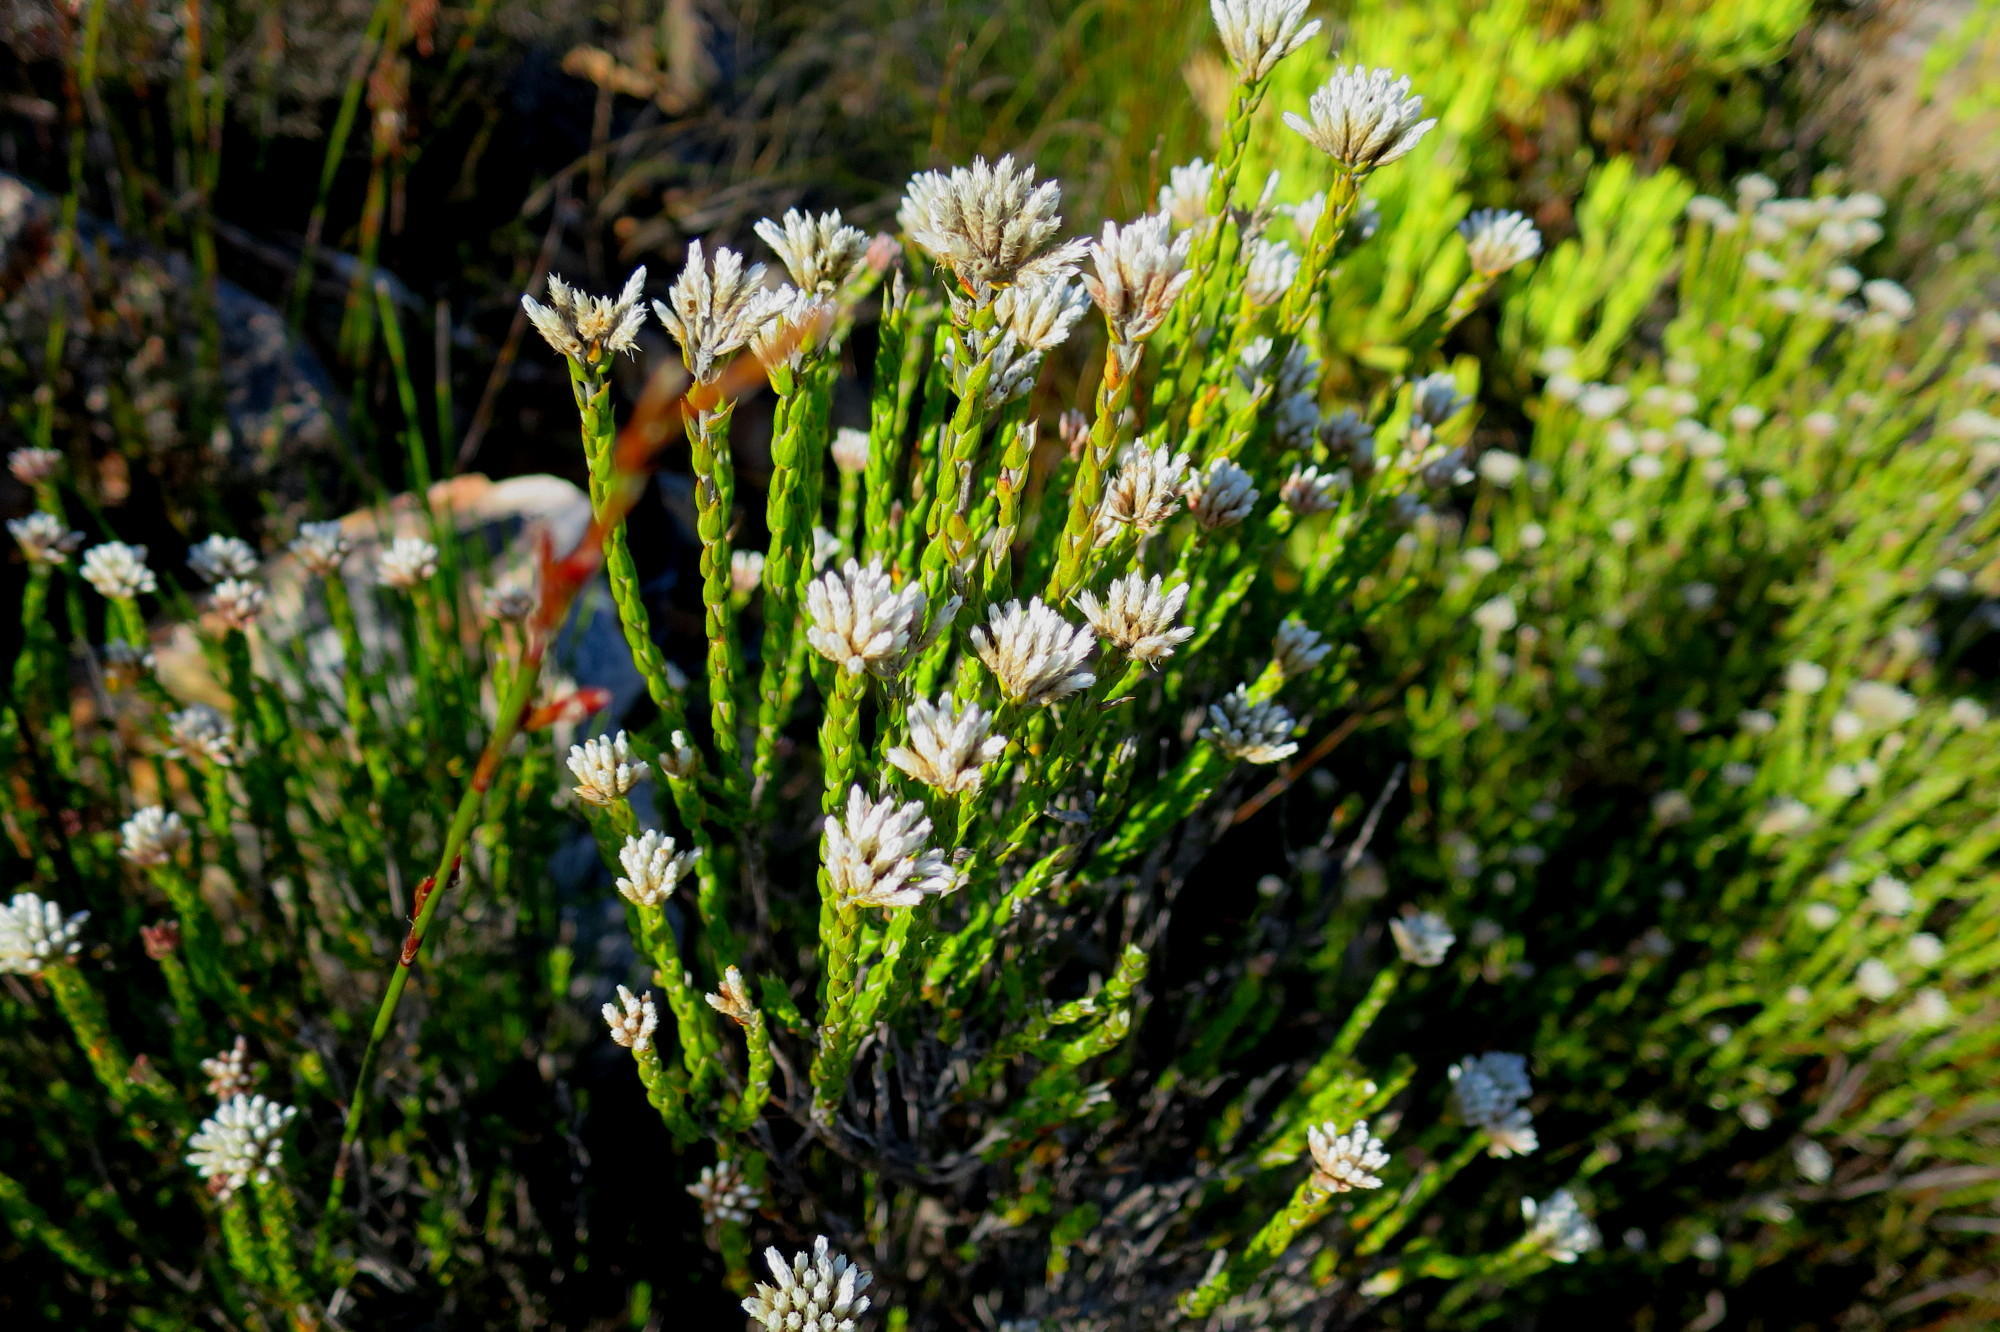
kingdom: Plantae
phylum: Tracheophyta
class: Magnoliopsida
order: Asterales
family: Asteraceae
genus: Metalasia
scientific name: Metalasia pulcherrima
